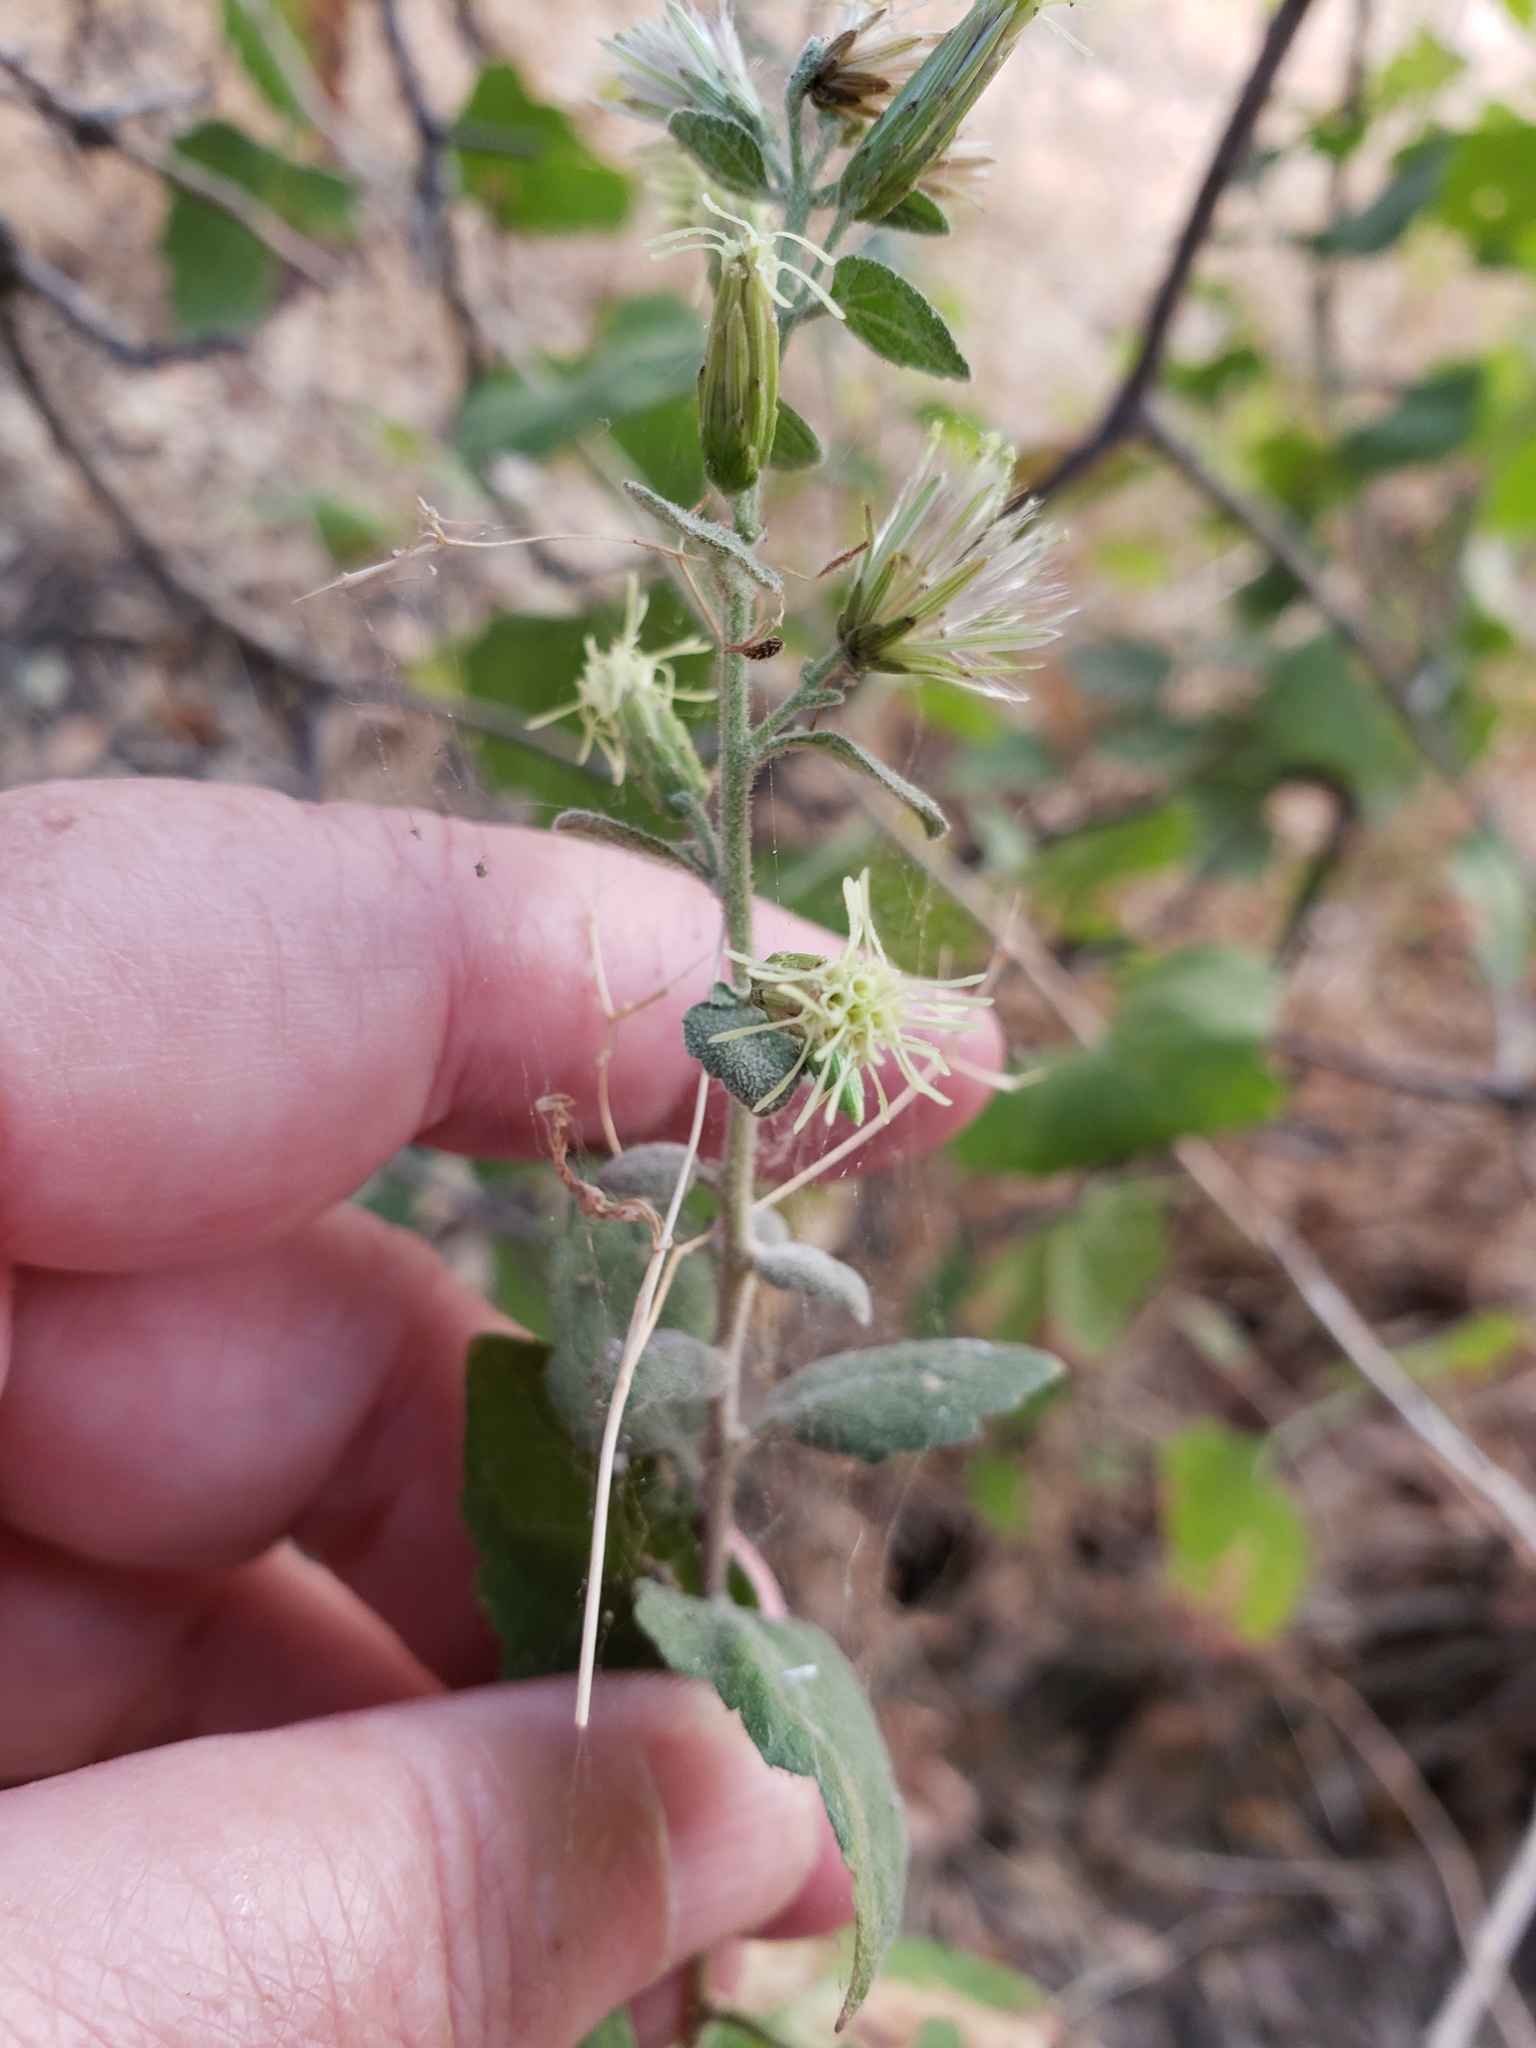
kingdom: Plantae
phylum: Tracheophyta
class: Magnoliopsida
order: Asterales
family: Asteraceae
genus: Brickellia
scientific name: Brickellia californica
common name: California brickellbush
